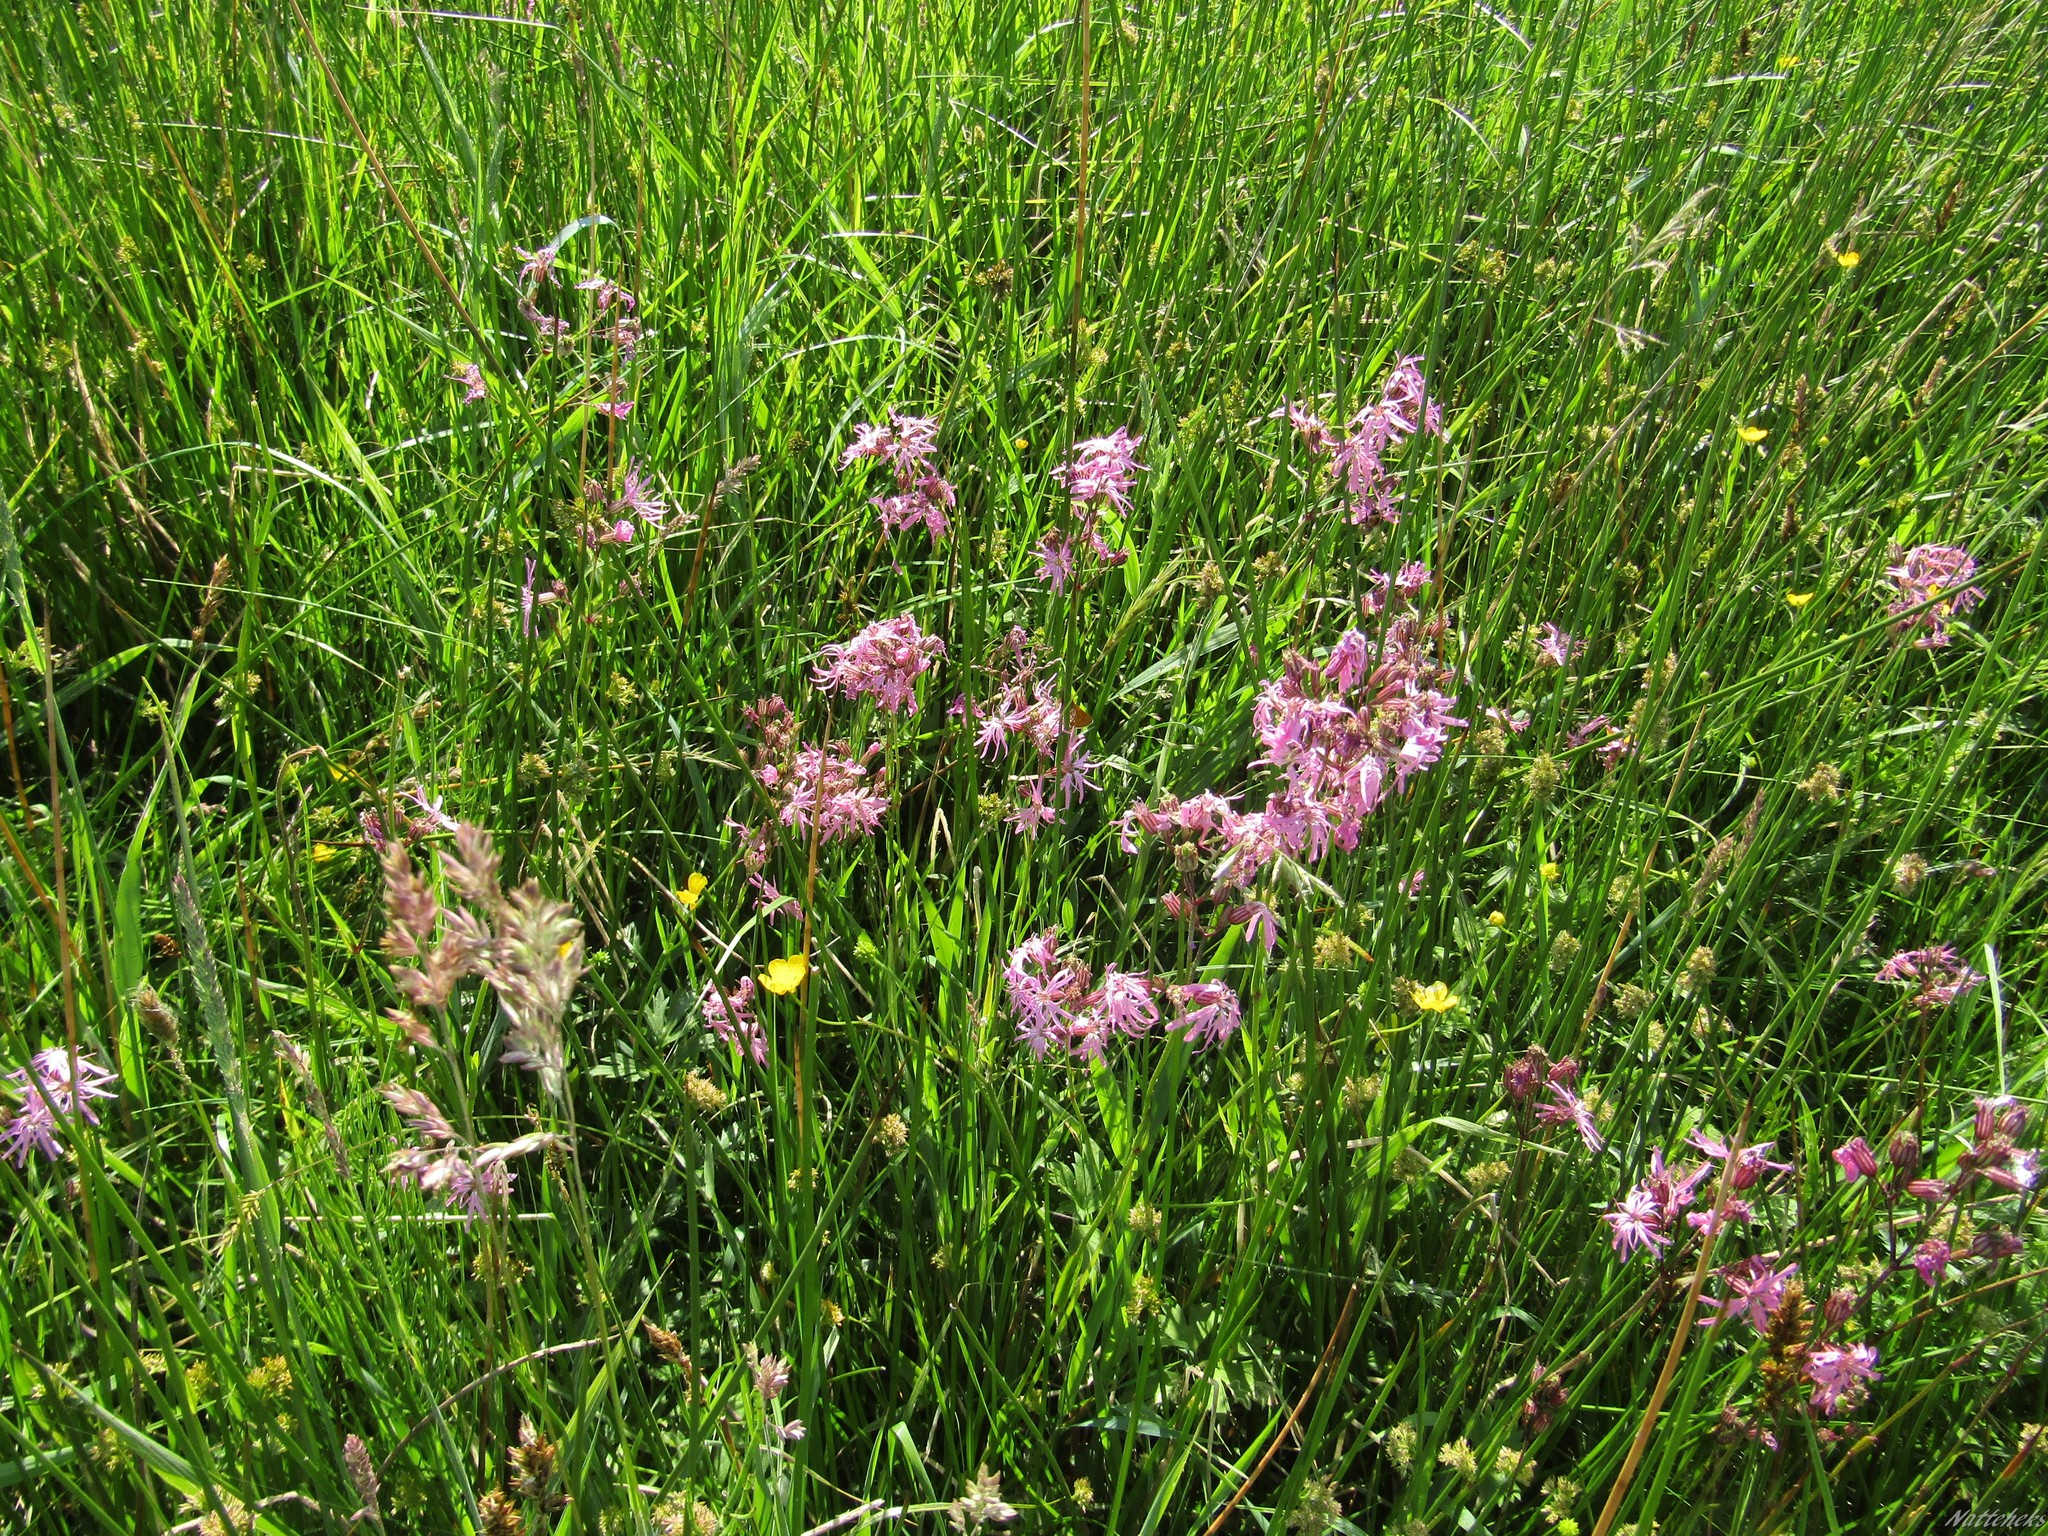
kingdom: Plantae
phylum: Tracheophyta
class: Magnoliopsida
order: Caryophyllales
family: Caryophyllaceae
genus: Silene
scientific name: Silene flos-cuculi
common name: Ragged-robin
